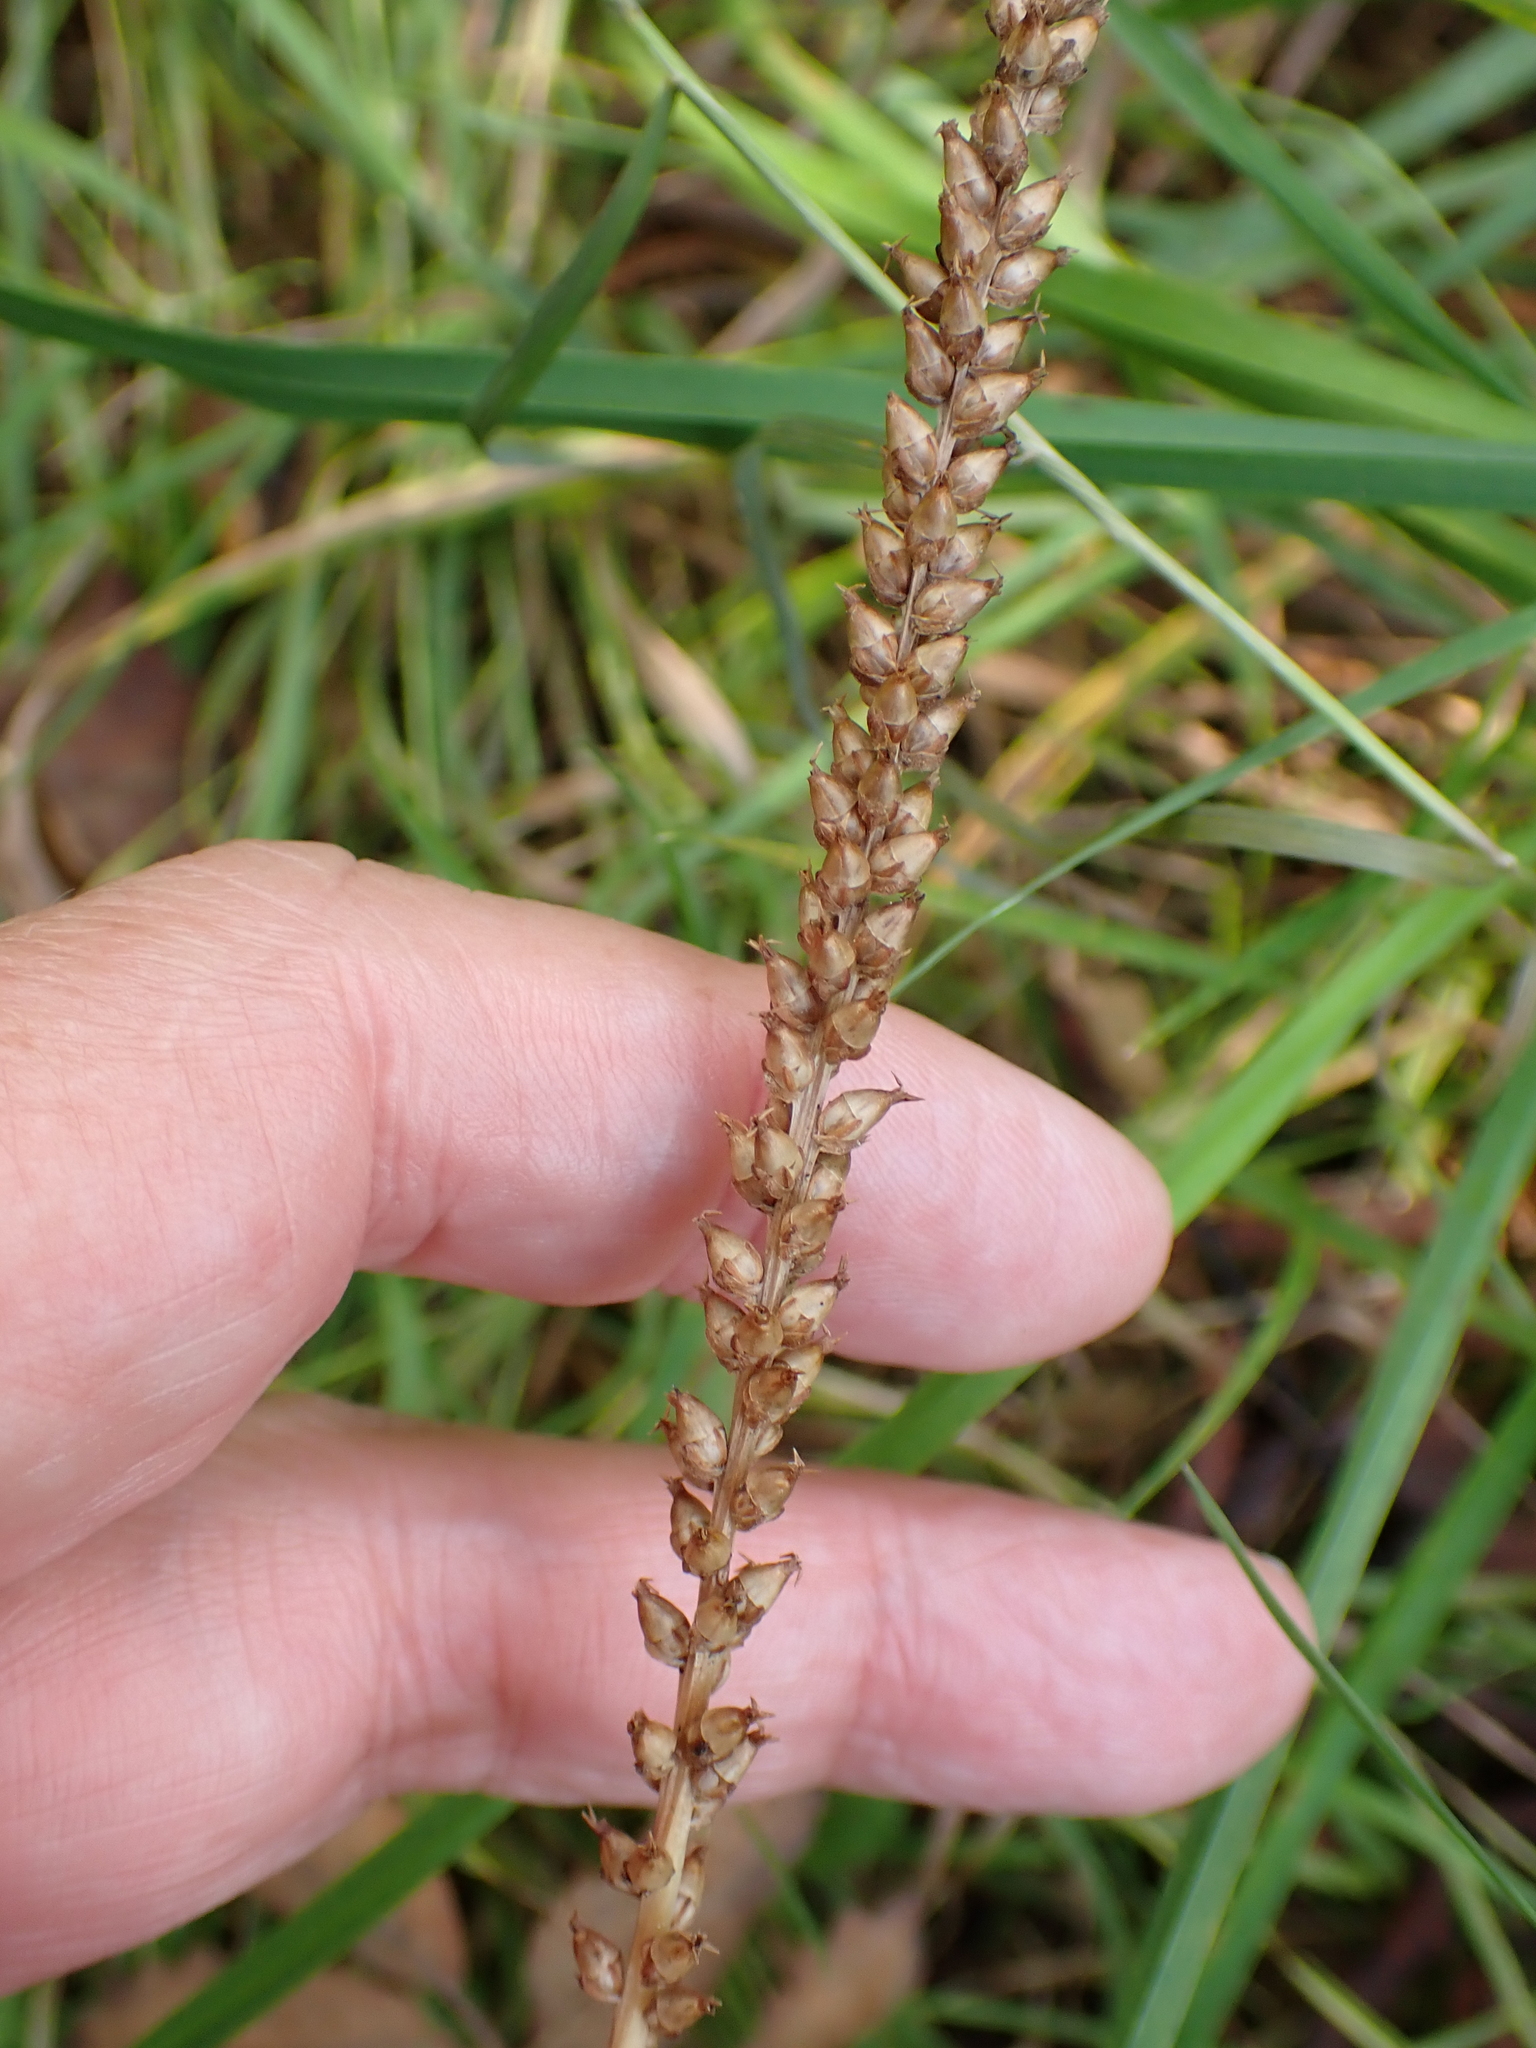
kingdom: Plantae
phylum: Tracheophyta
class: Magnoliopsida
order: Lamiales
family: Plantaginaceae
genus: Plantago
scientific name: Plantago major
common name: Common plantain
